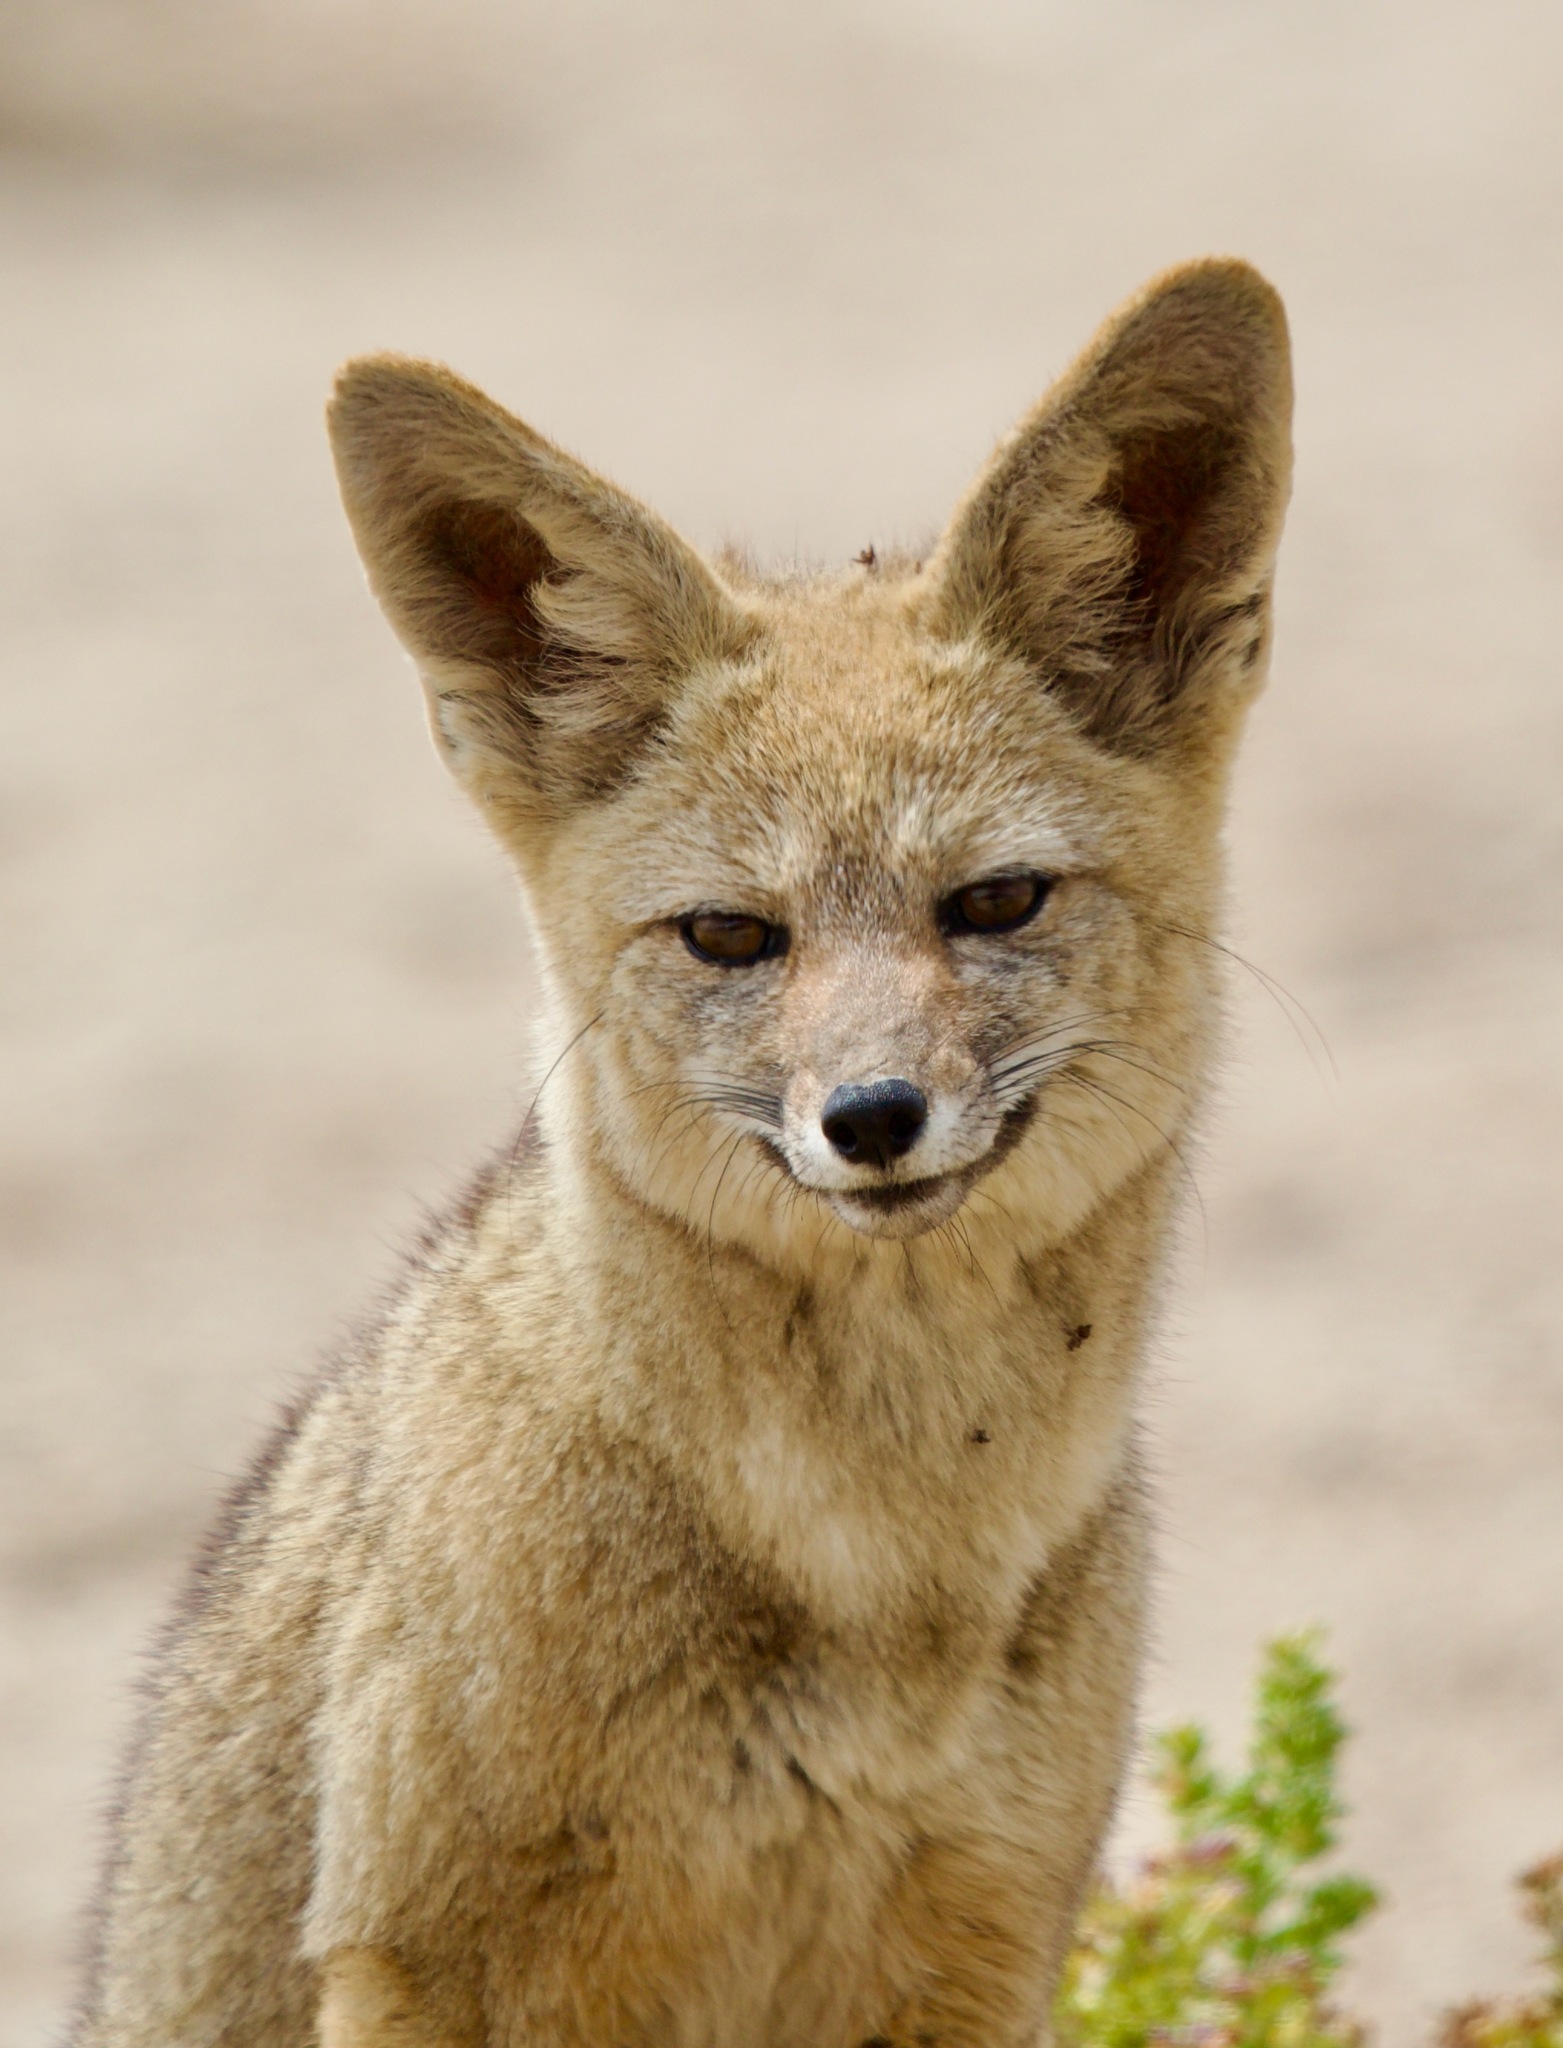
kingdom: Animalia
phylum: Chordata
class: Mammalia
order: Carnivora
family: Canidae
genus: Lycalopex
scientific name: Lycalopex gymnocercus
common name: Pampas fox
